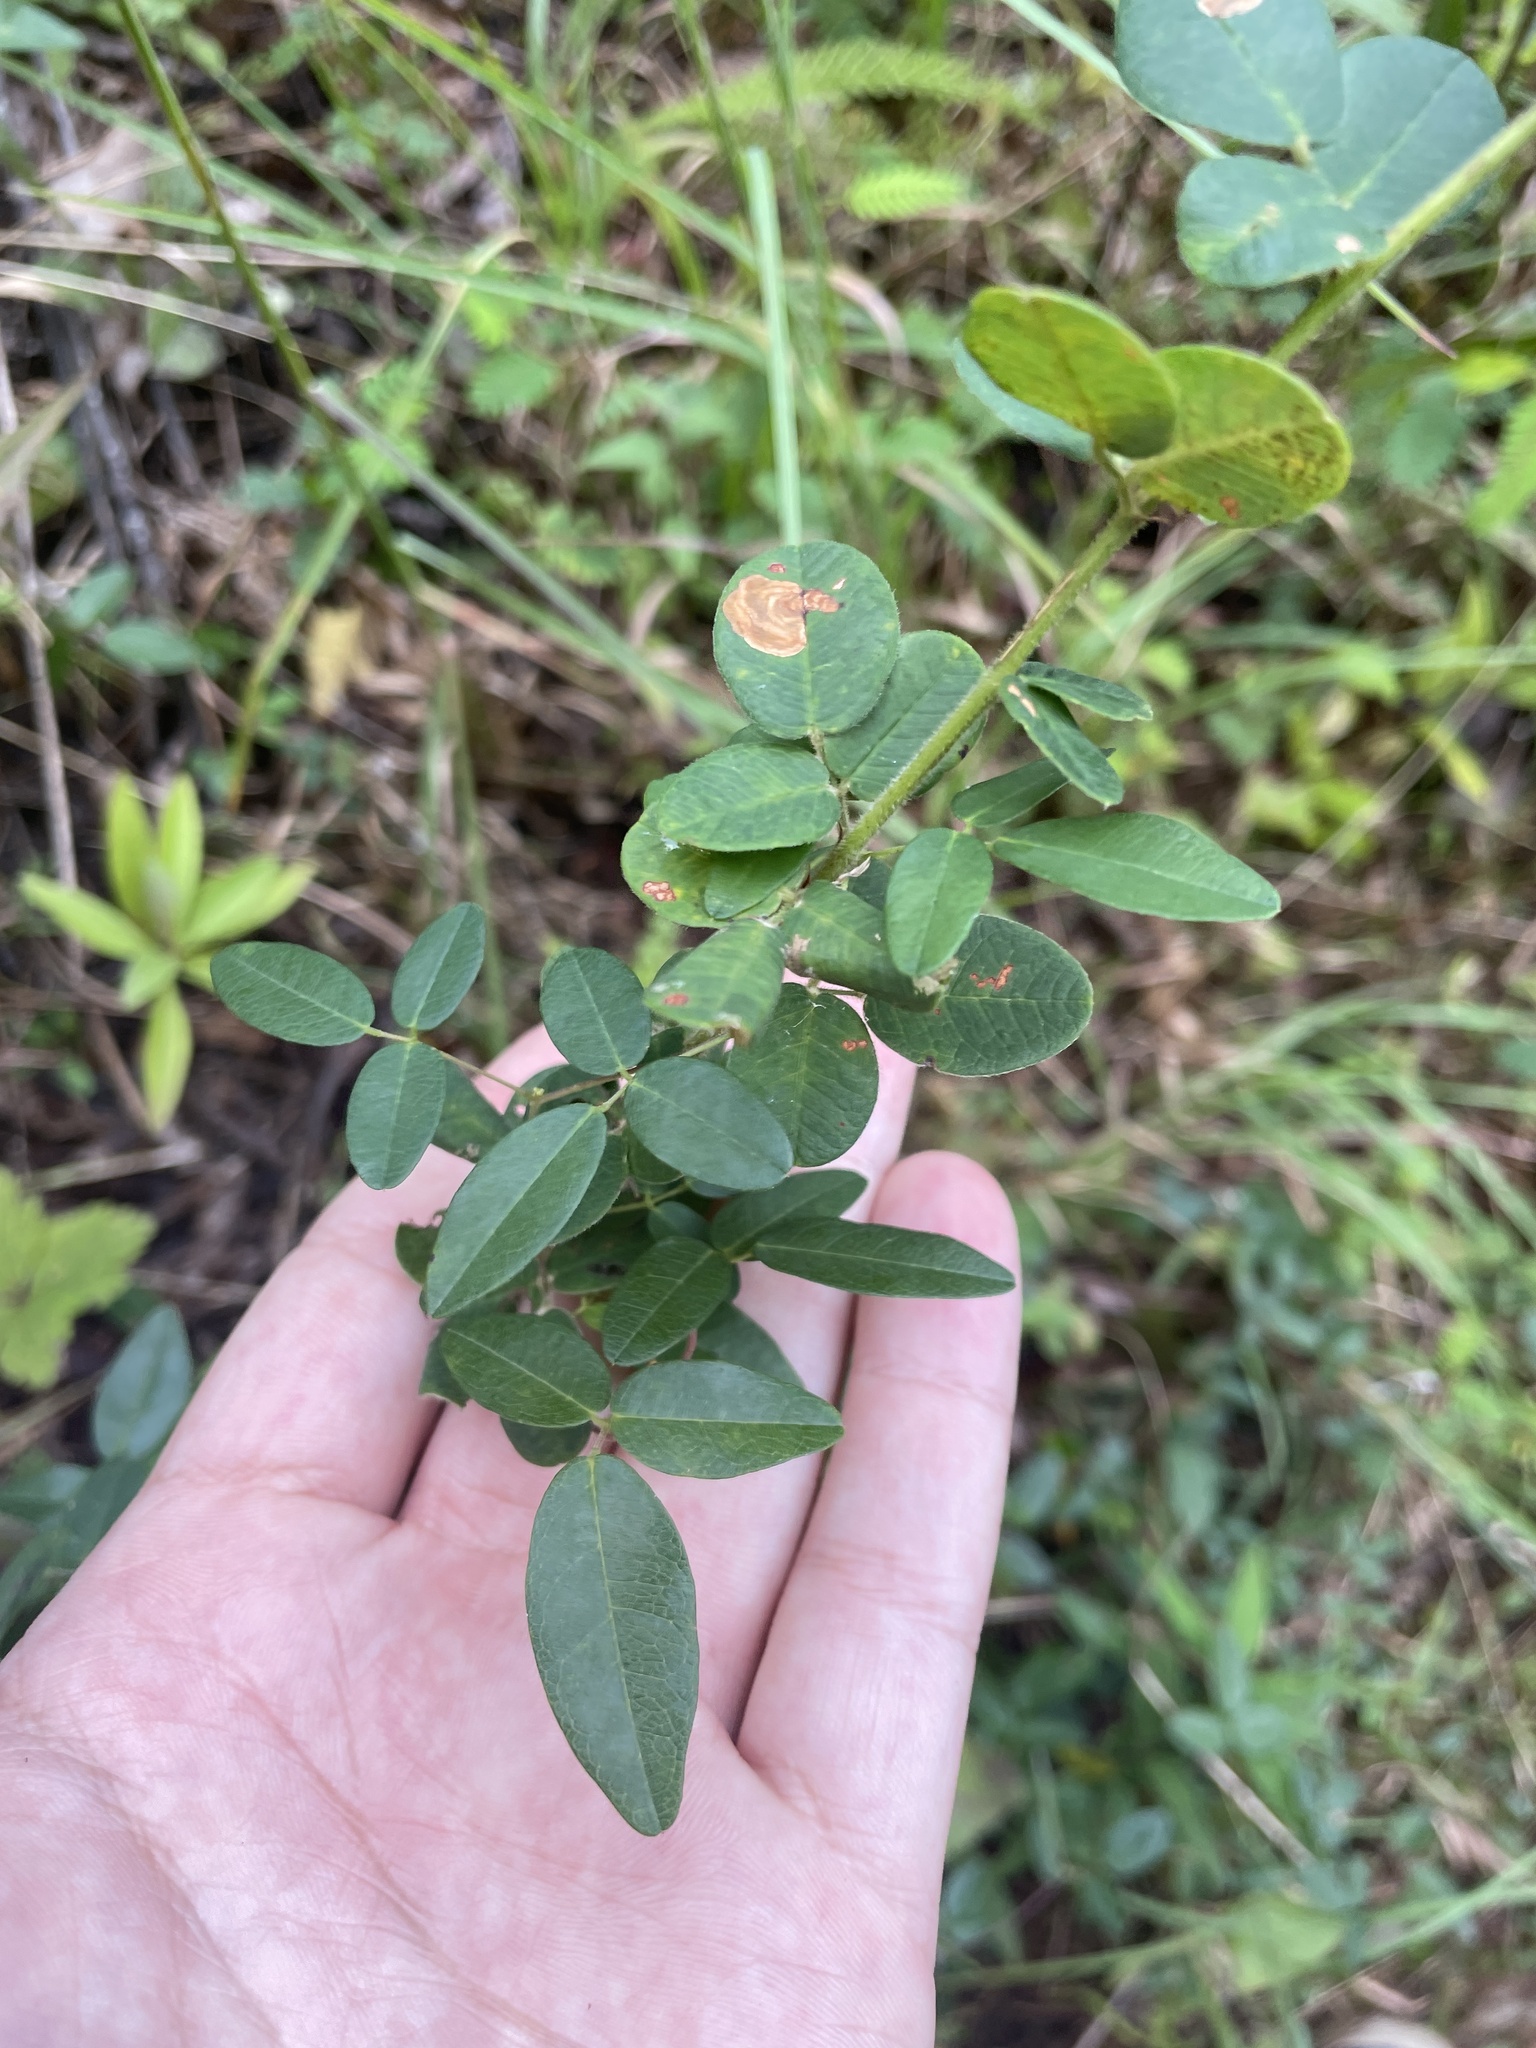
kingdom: Plantae
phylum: Tracheophyta
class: Magnoliopsida
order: Fabales
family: Fabaceae
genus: Lespedeza
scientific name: Lespedeza hirta
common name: Hairy lespedeza
